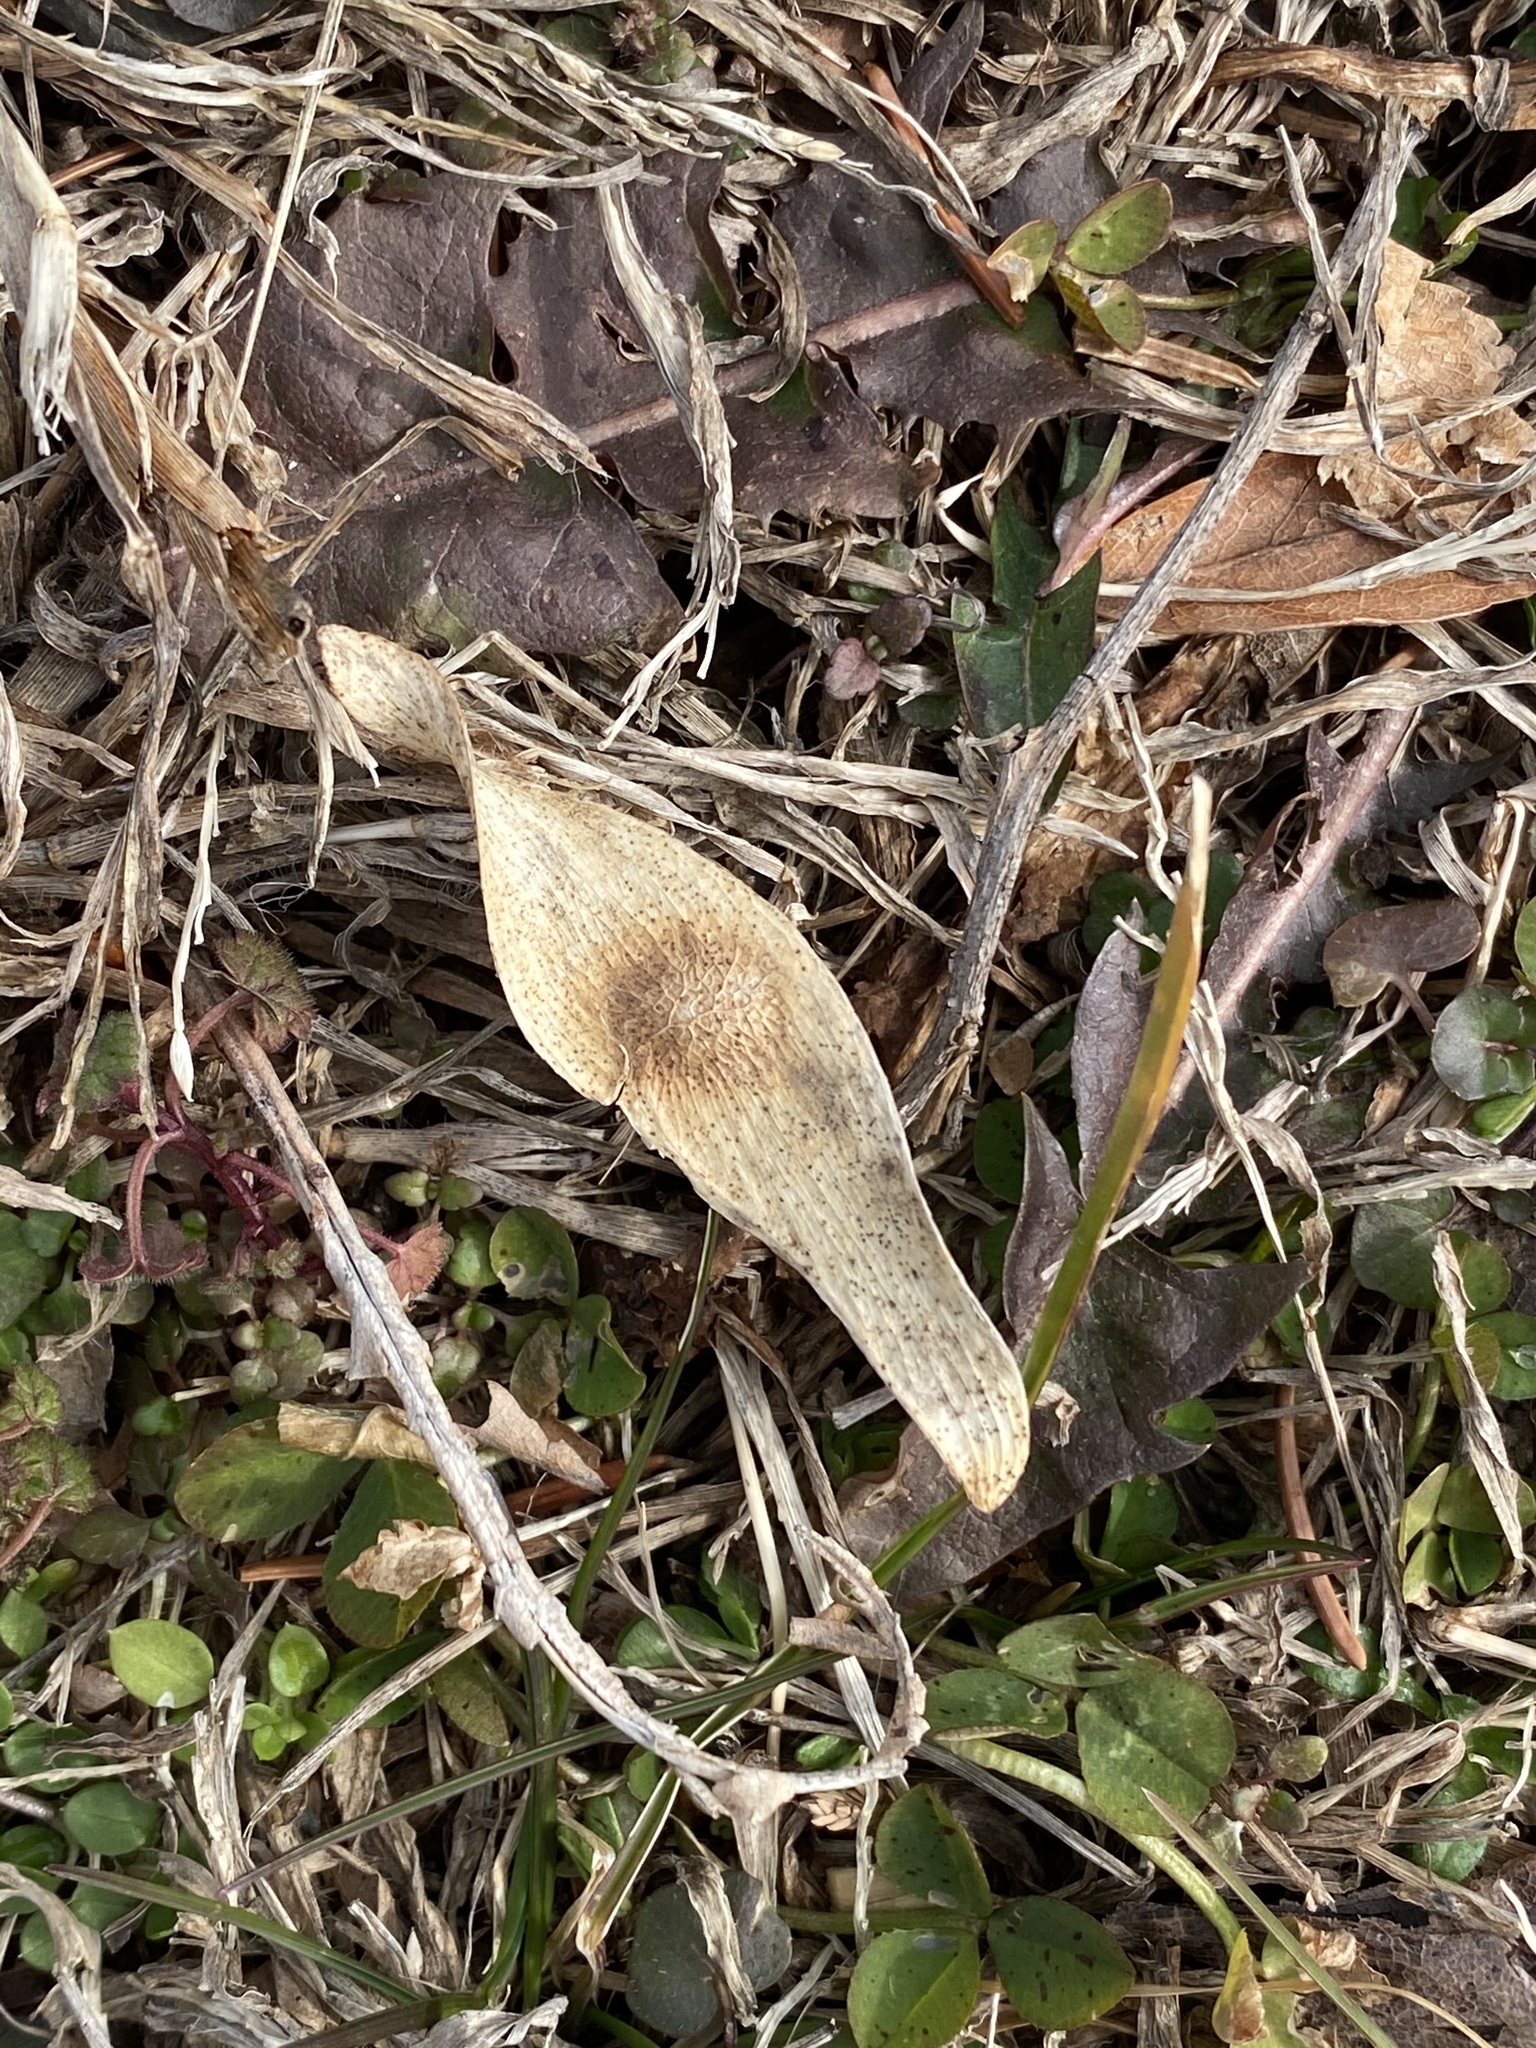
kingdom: Plantae
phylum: Tracheophyta
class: Magnoliopsida
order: Sapindales
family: Simaroubaceae
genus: Ailanthus
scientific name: Ailanthus altissima
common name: Tree-of-heaven
